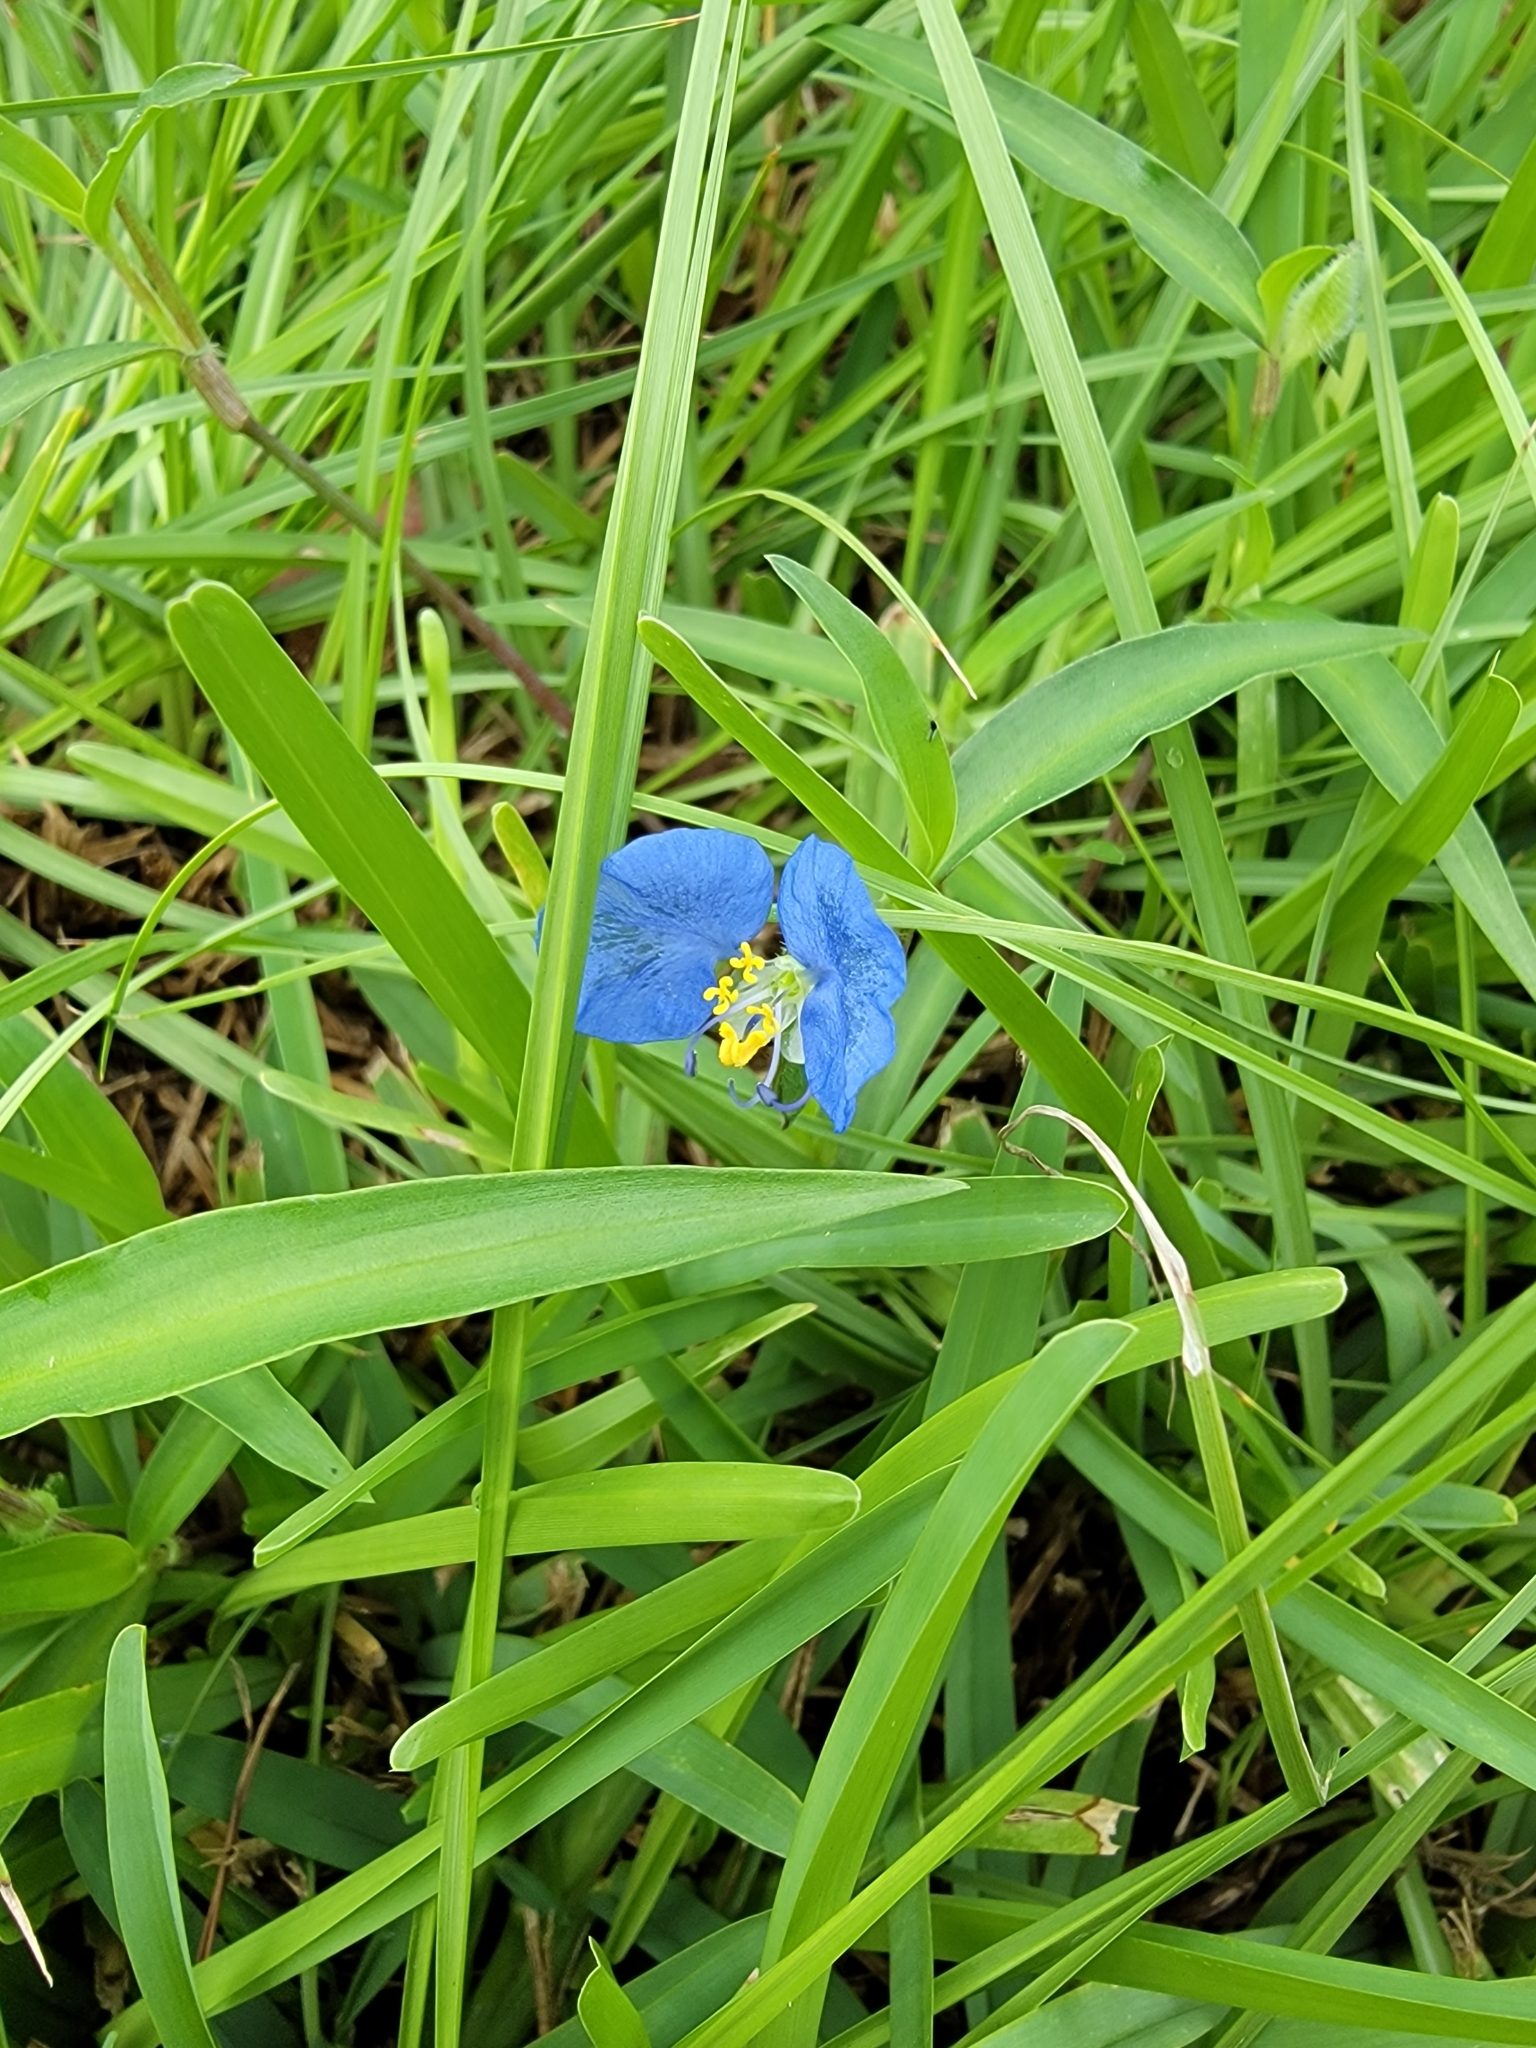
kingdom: Plantae
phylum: Tracheophyta
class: Liliopsida
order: Commelinales
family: Commelinaceae
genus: Commelina
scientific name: Commelina erecta
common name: Blousel blommetjie
